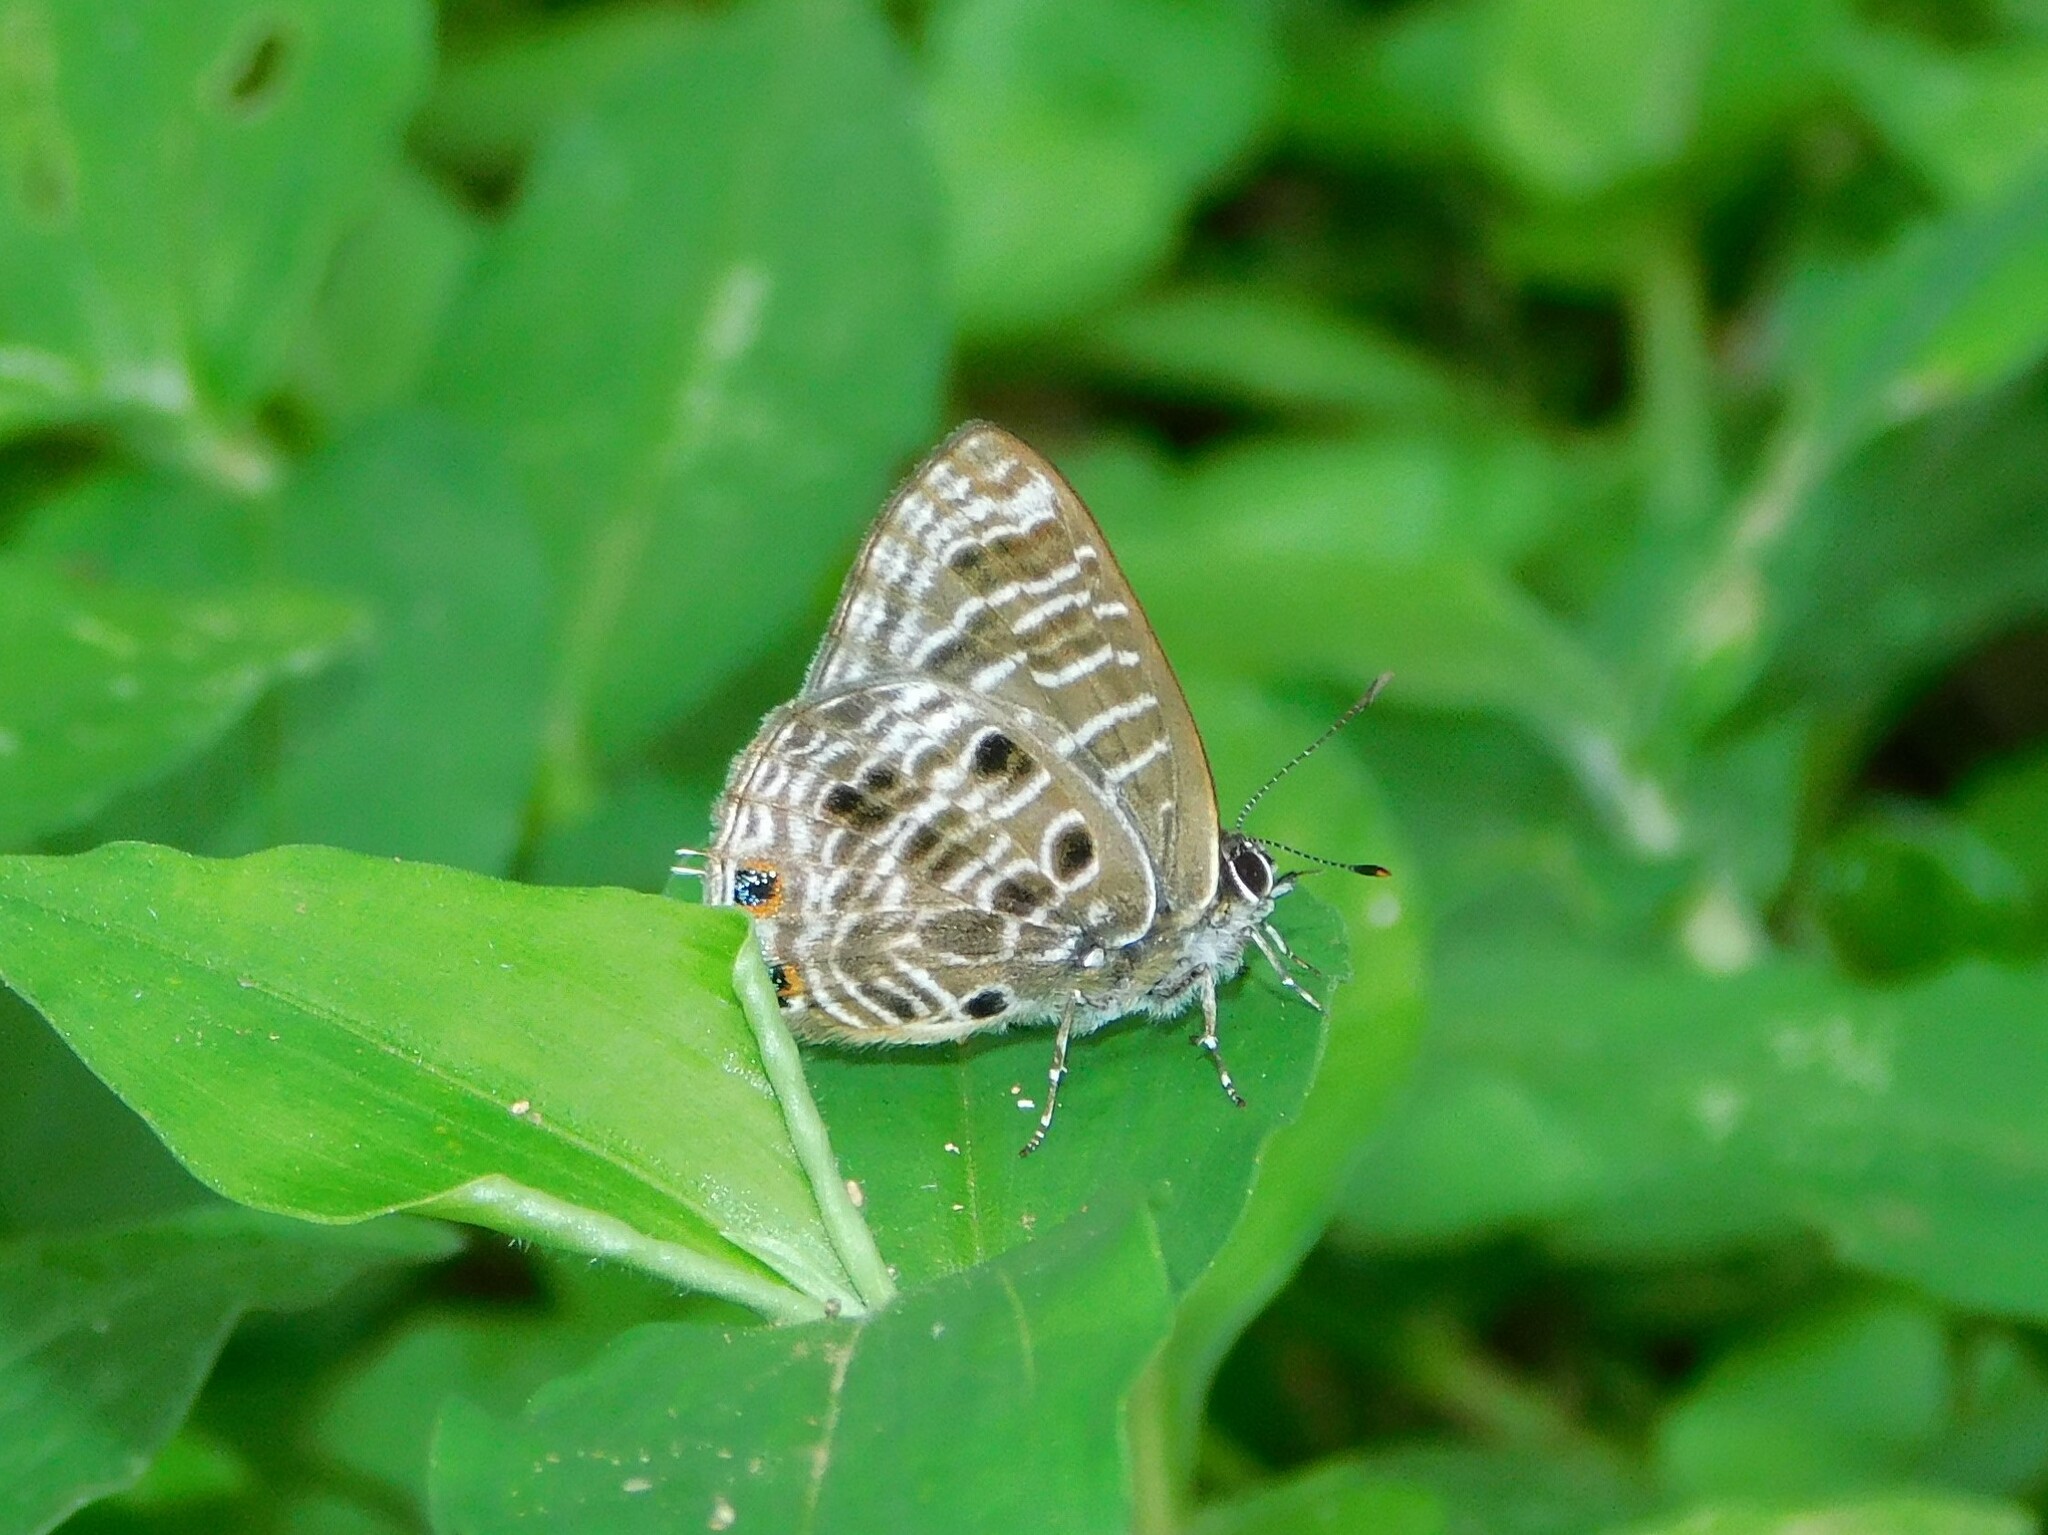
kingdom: Animalia
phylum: Arthropoda
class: Insecta
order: Lepidoptera
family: Lycaenidae
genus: Anthene
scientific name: Anthene larydas
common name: Forest hairtail
